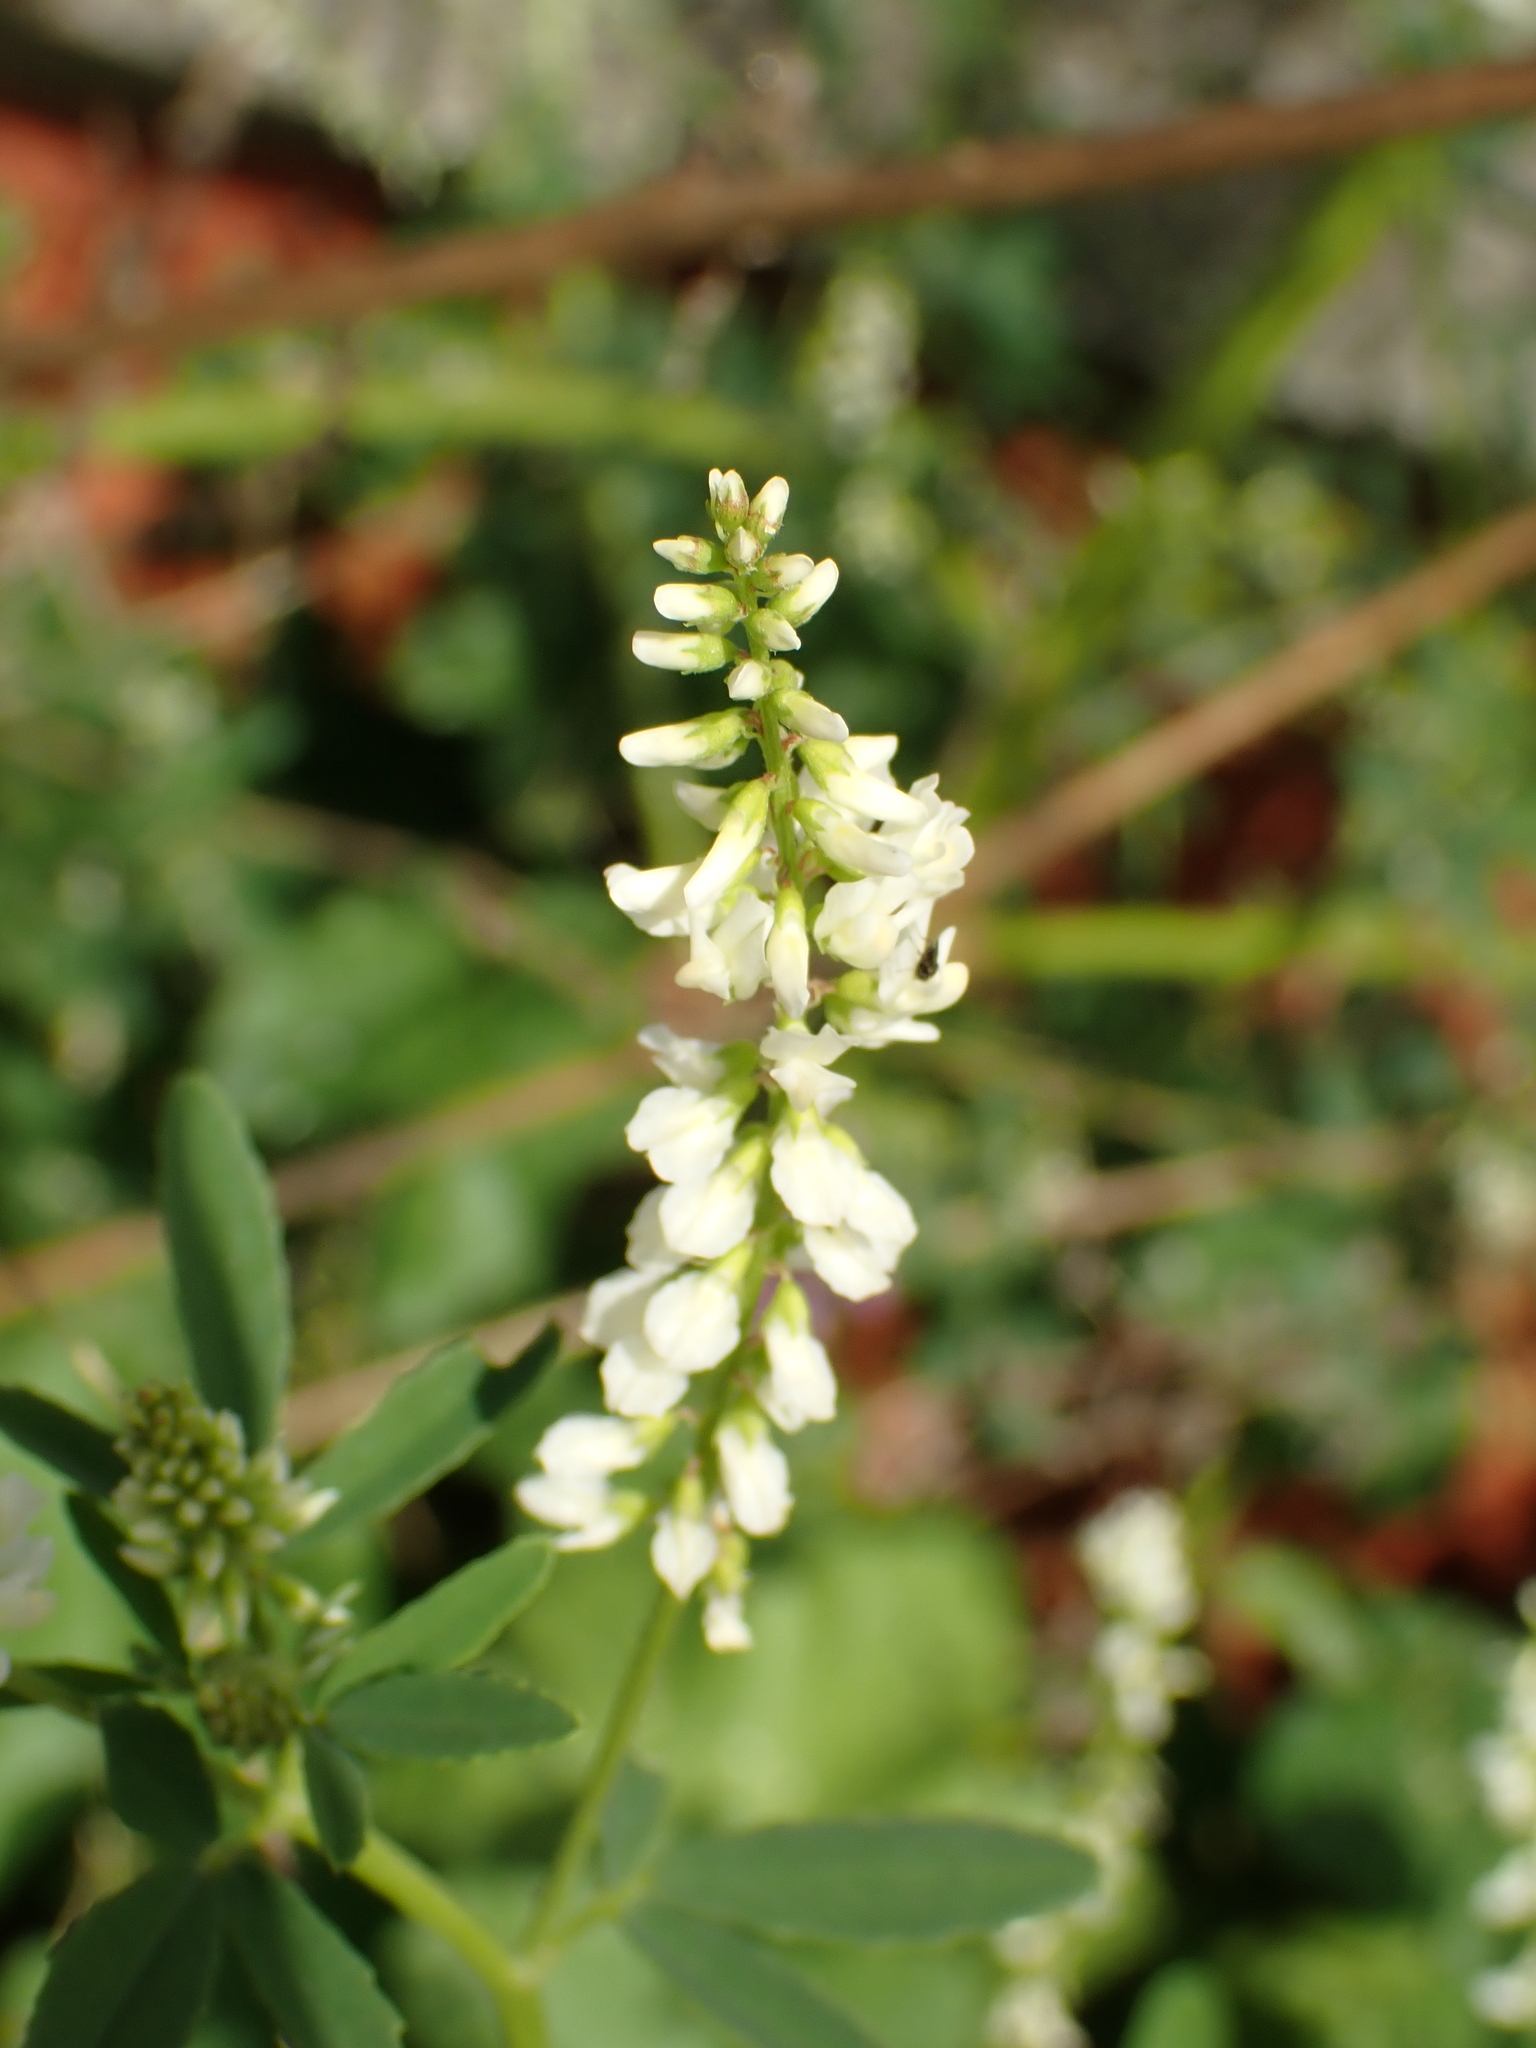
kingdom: Plantae
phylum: Tracheophyta
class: Magnoliopsida
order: Fabales
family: Fabaceae
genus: Melilotus
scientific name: Melilotus albus
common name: White melilot
